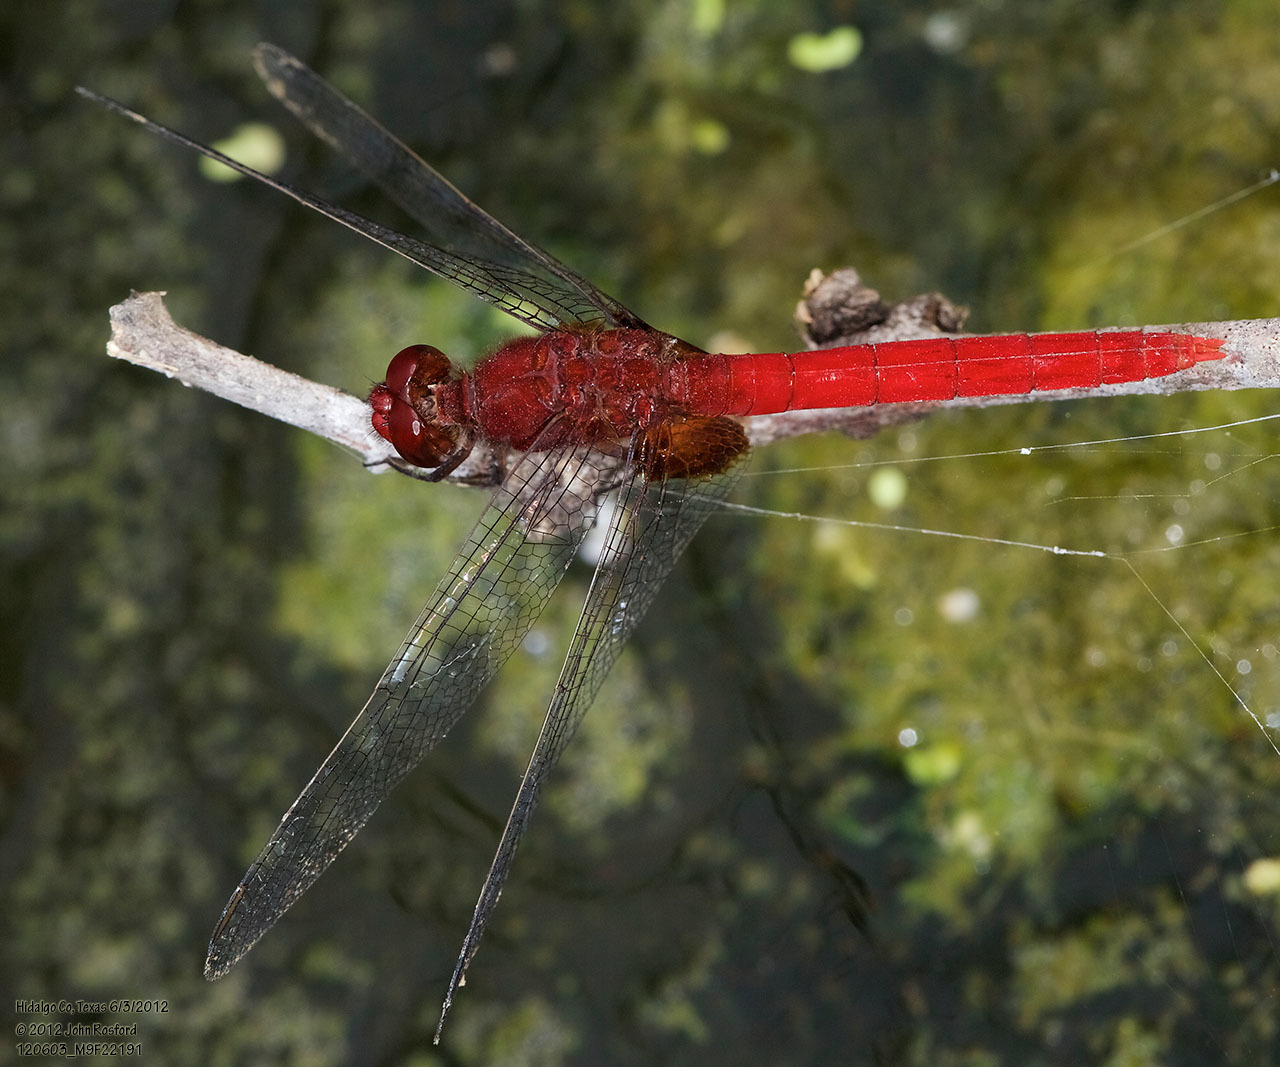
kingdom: Animalia
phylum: Arthropoda
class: Insecta
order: Odonata
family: Libellulidae
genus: Erythemis
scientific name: Erythemis mithroides
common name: Claret pondhawk
